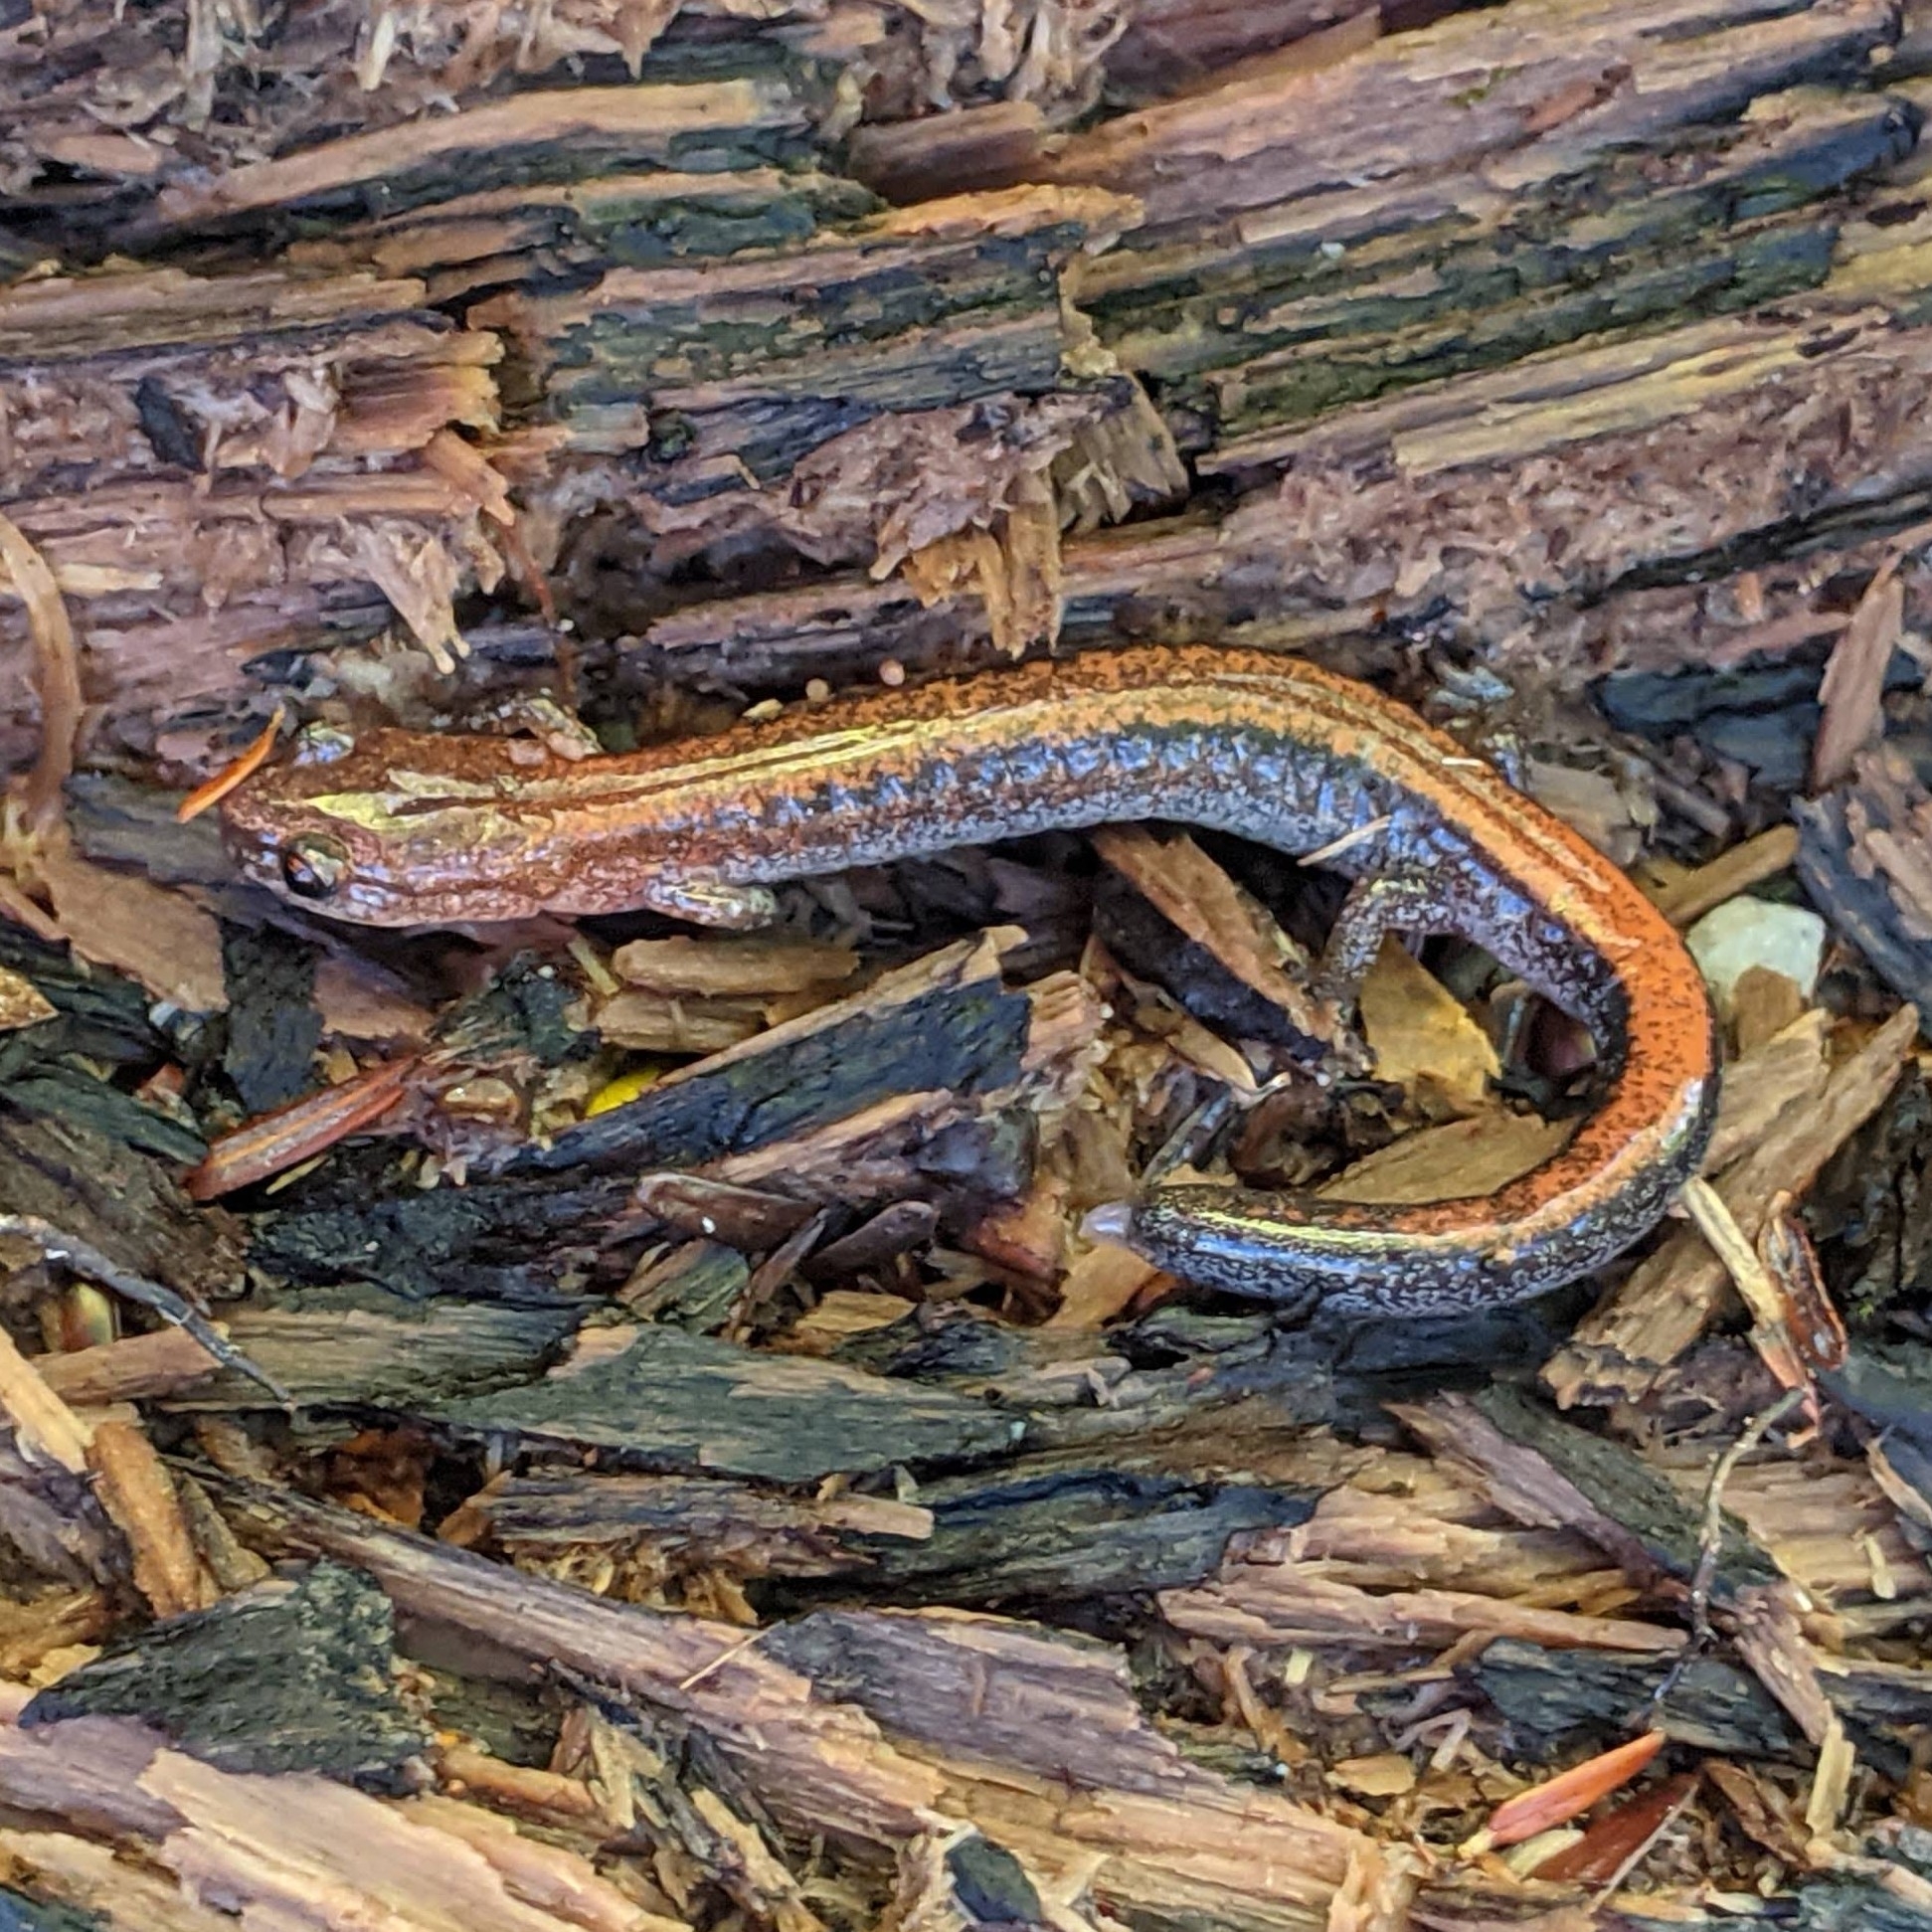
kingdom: Animalia
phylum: Chordata
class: Amphibia
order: Caudata
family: Plethodontidae
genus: Plethodon
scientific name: Plethodon cinereus
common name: Redback salamander
